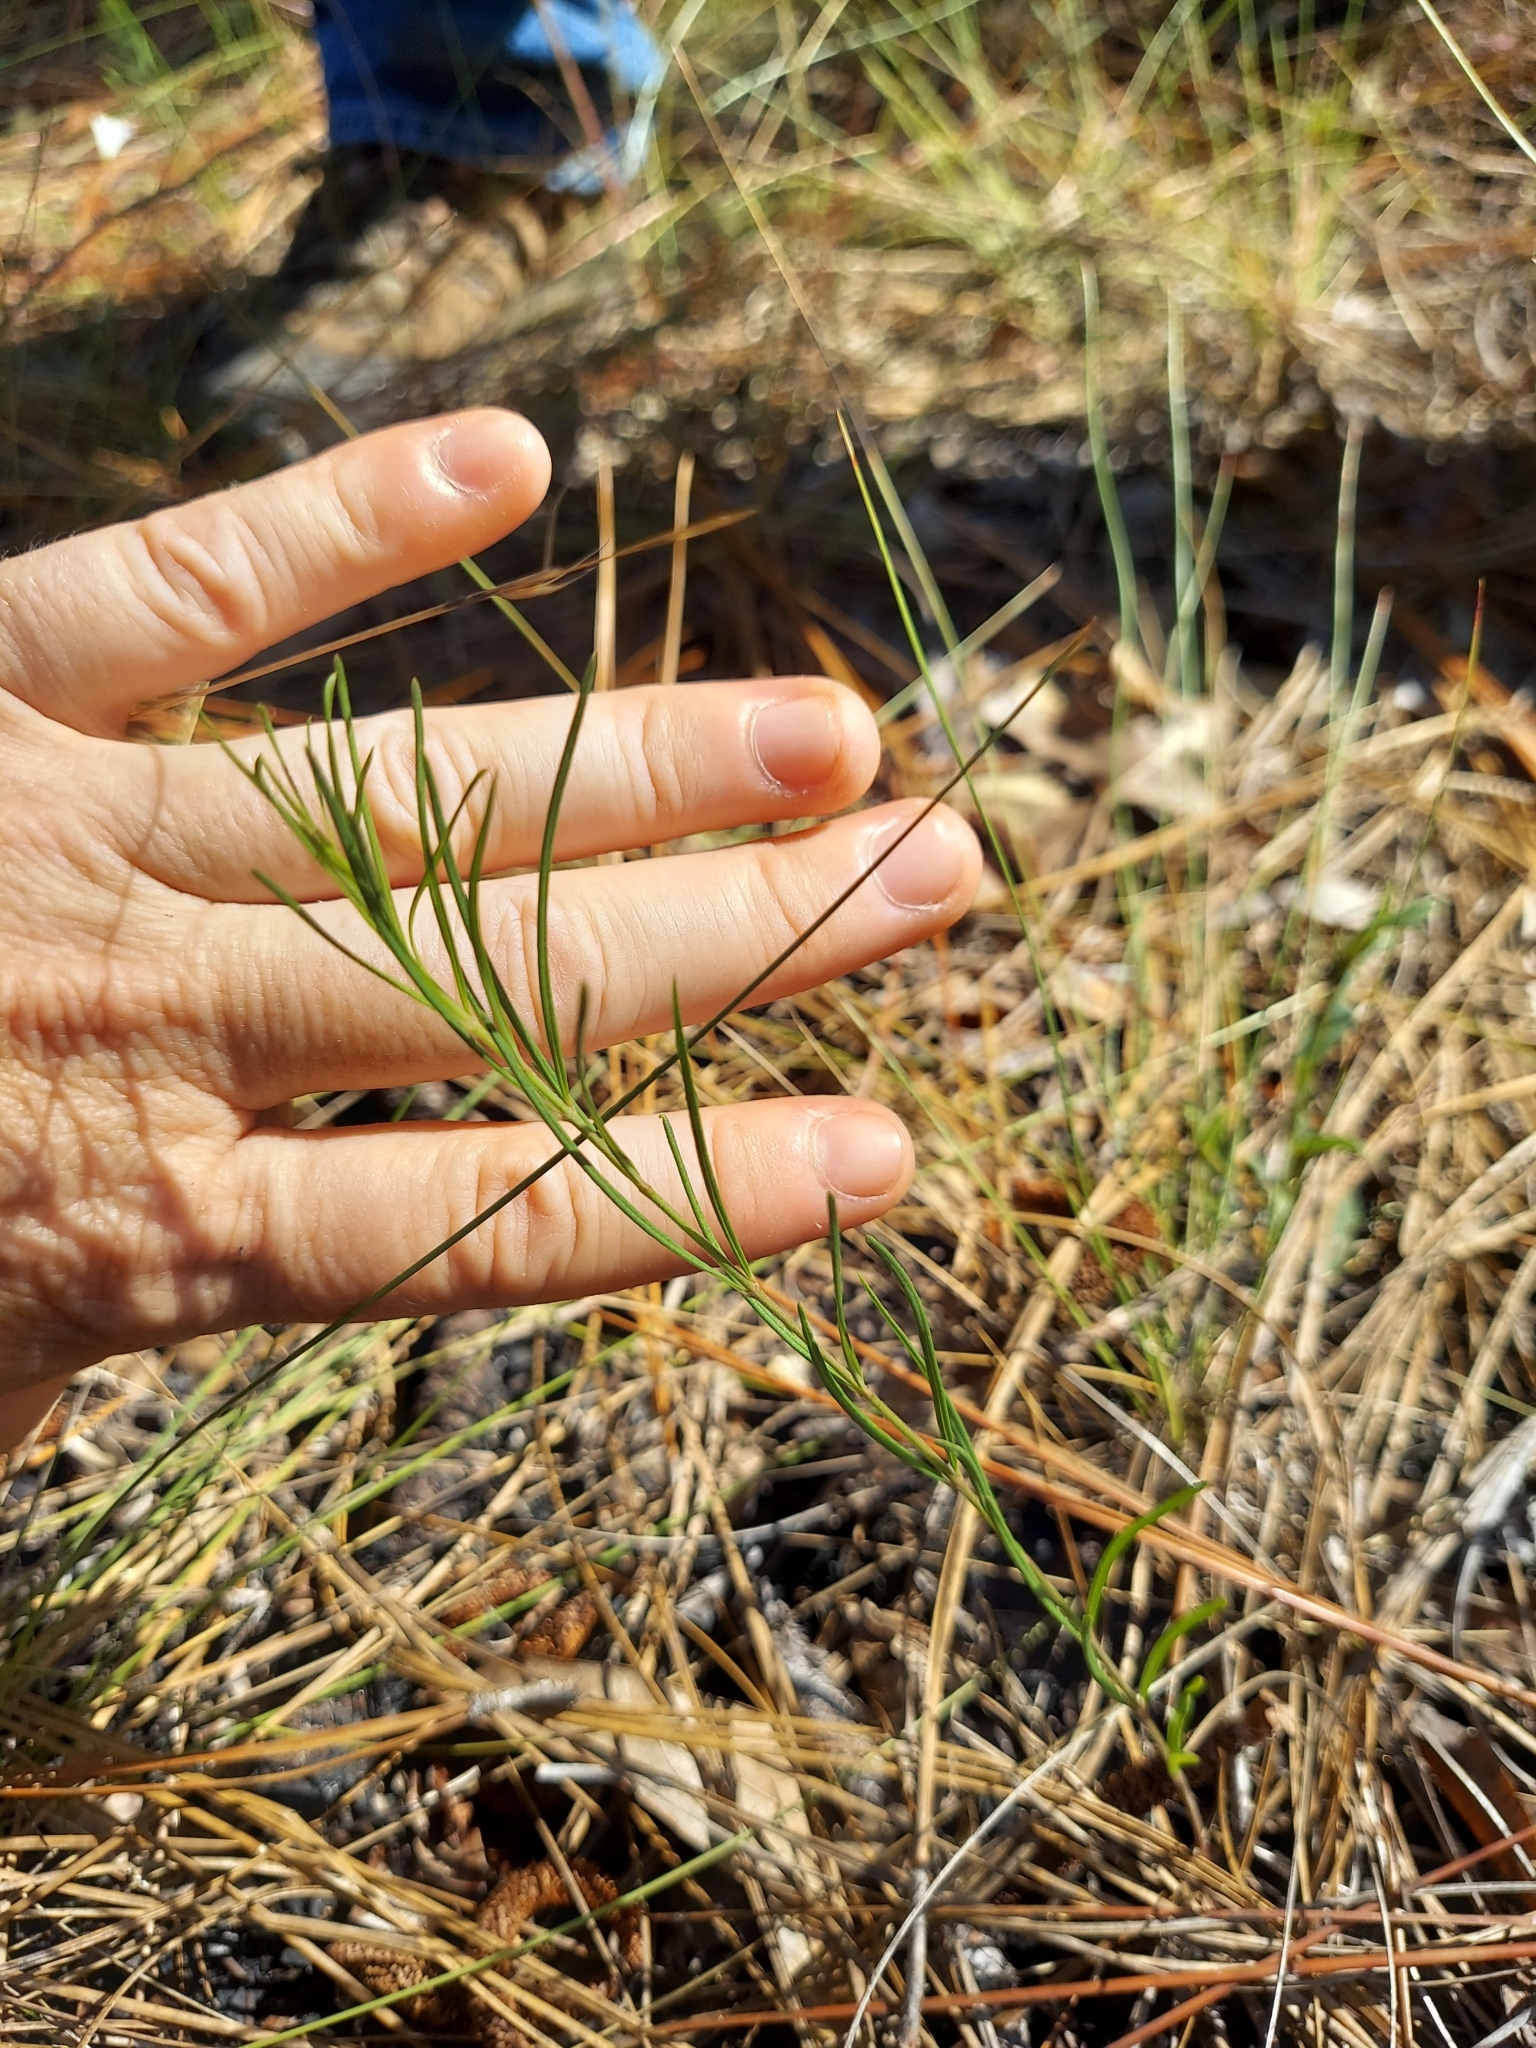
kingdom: Plantae
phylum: Tracheophyta
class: Magnoliopsida
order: Gentianales
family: Apocynaceae
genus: Asclepias
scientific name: Asclepias verticillata
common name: Eastern whorled milkweed
